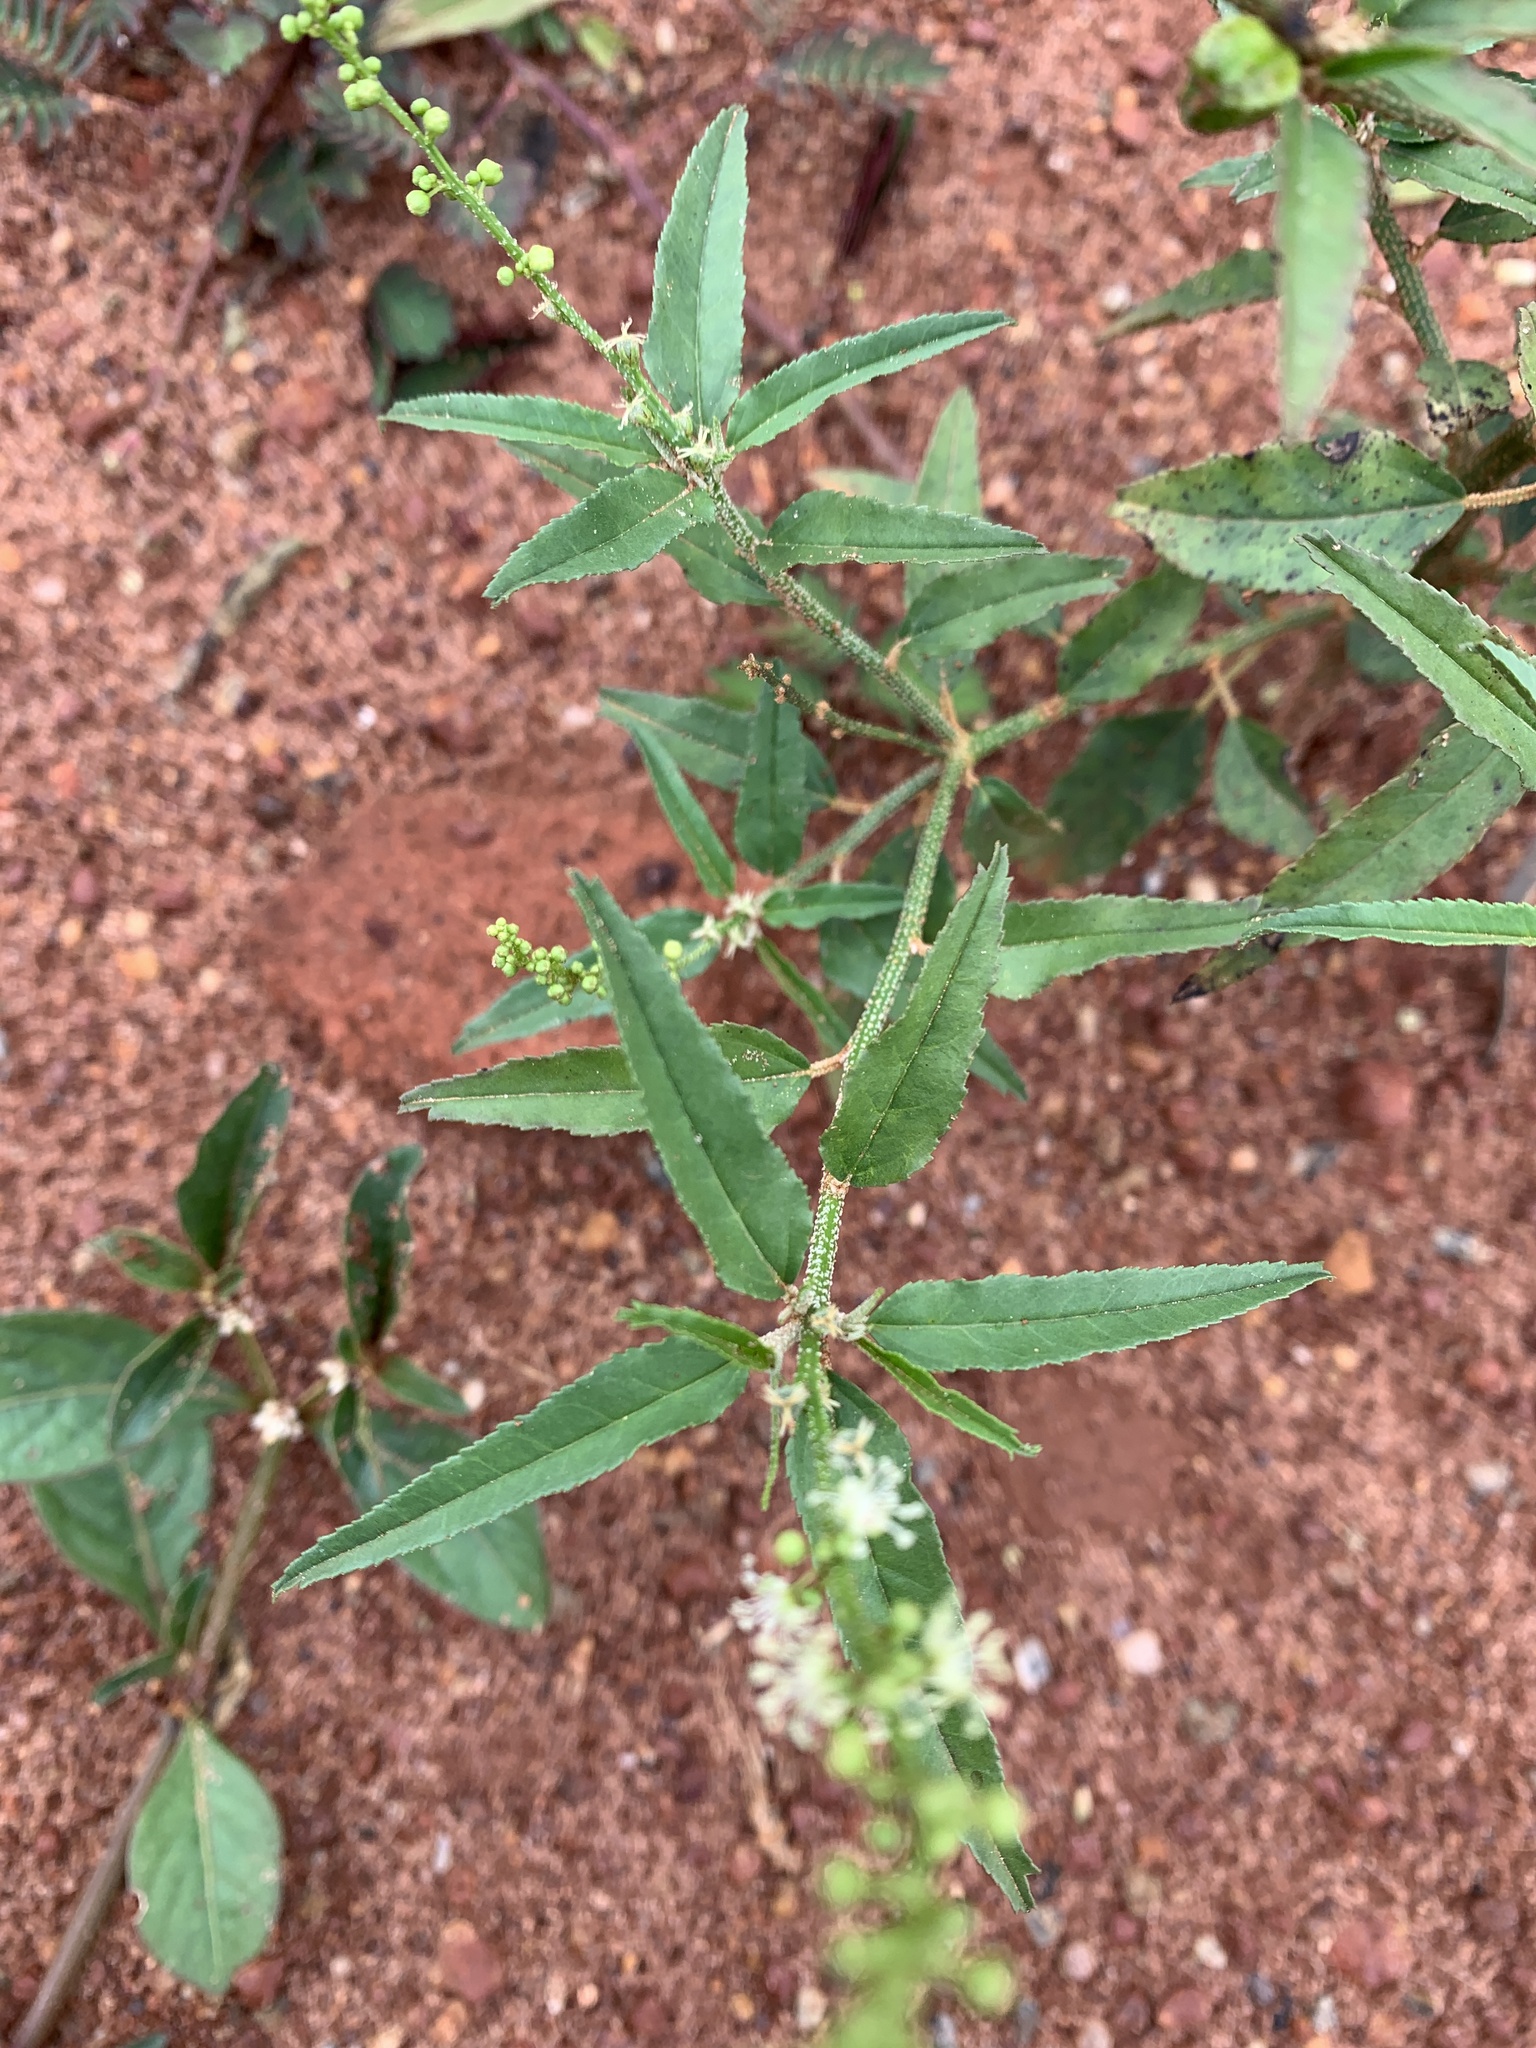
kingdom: Plantae
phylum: Tracheophyta
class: Magnoliopsida
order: Malpighiales
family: Euphorbiaceae
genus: Croton
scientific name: Croton bonplandianus
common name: Bonpland's croton
